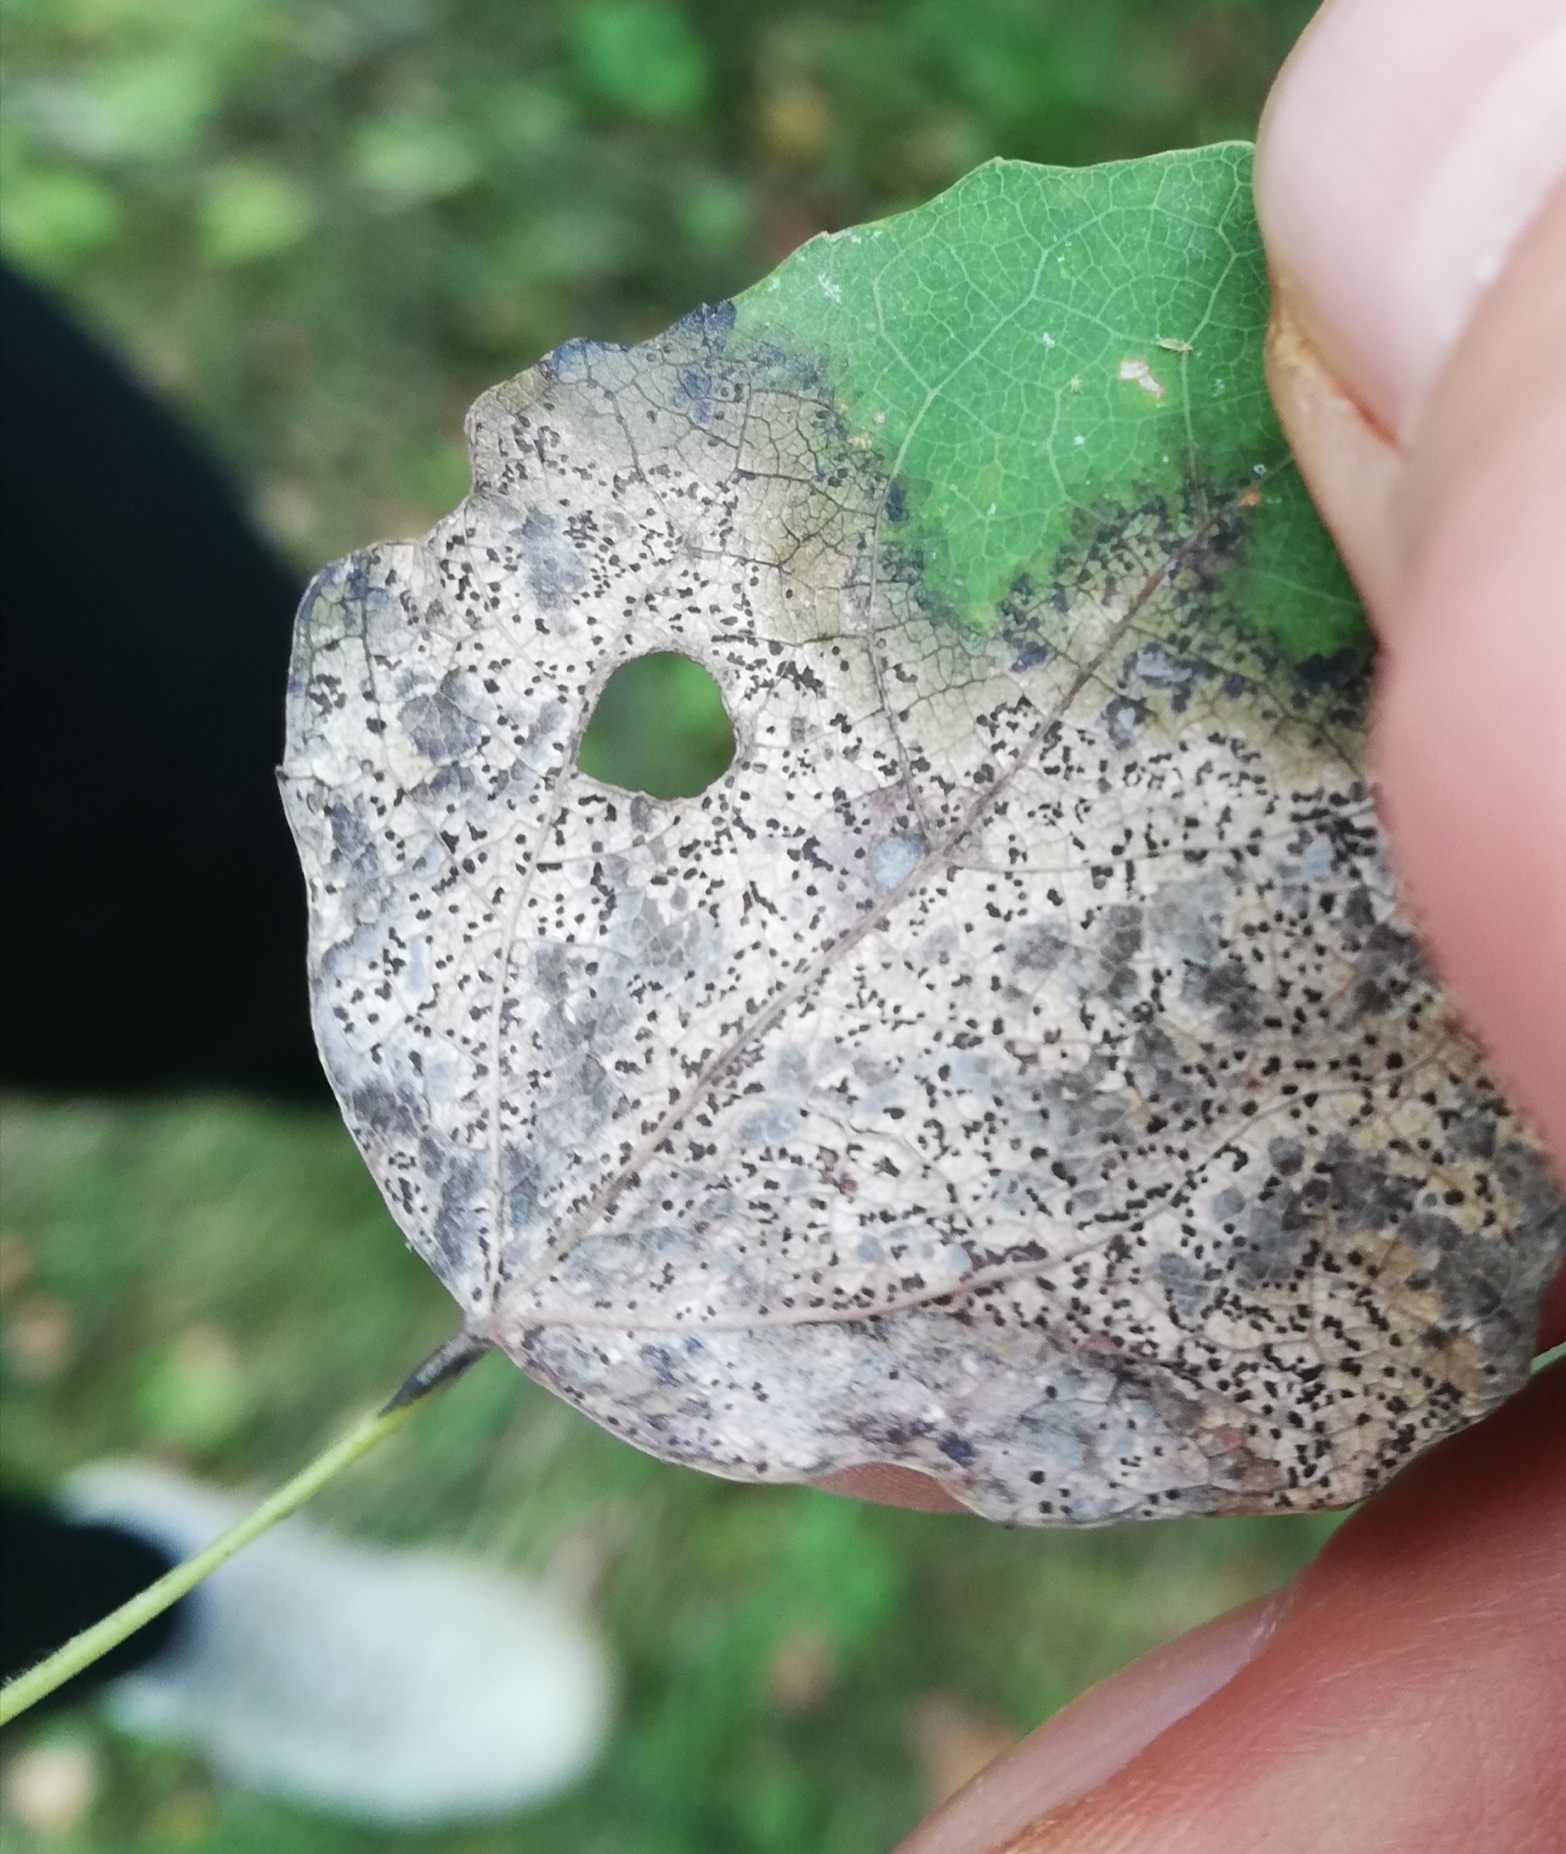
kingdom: Fungi
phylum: Ascomycota
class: Sordariomycetes
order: Diaporthales
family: Gnomoniaceae
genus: Titaeosporina
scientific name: Titaeosporina tremulae
